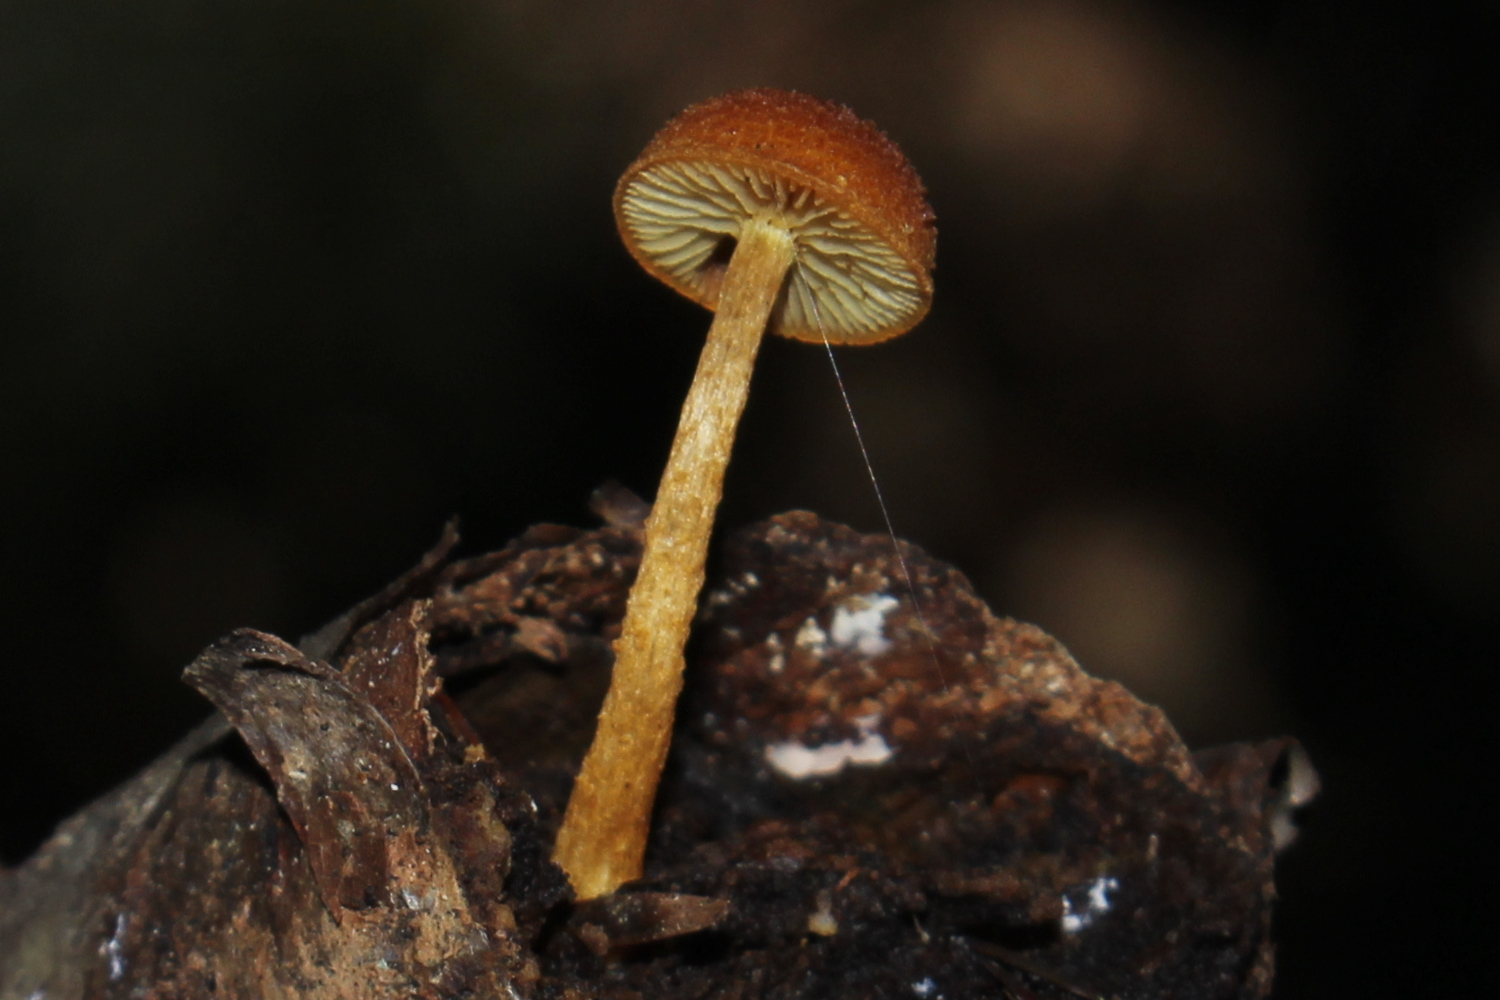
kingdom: Fungi
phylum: Basidiomycota
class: Agaricomycetes
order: Agaricales
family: Strophariaceae
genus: Pholiota
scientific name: Pholiota granulosa
